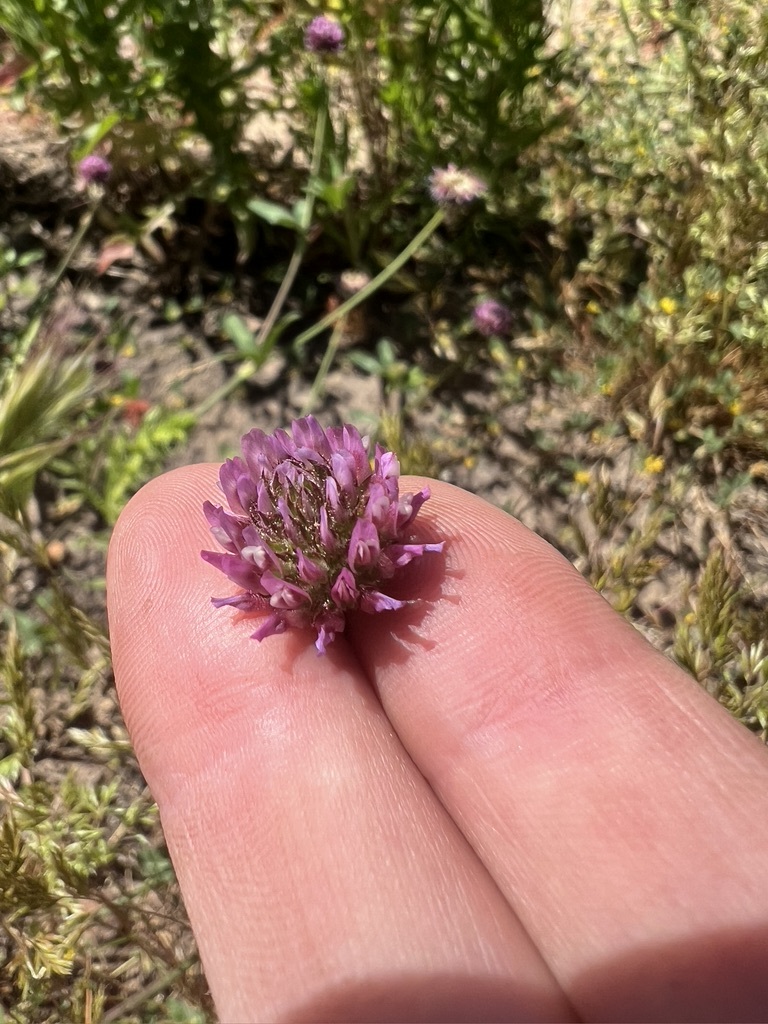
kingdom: Plantae
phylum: Tracheophyta
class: Magnoliopsida
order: Fabales
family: Fabaceae
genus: Trifolium
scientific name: Trifolium ciliolatum
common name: Foothill clover
